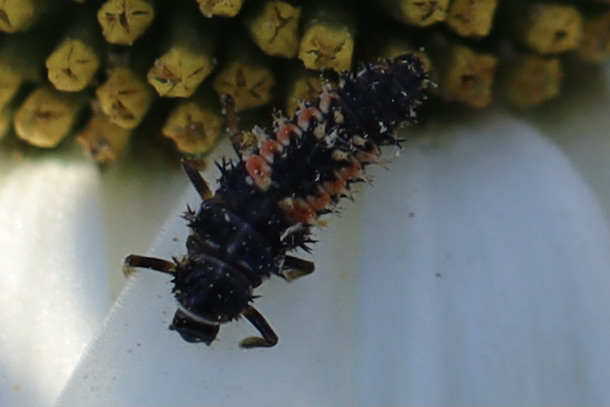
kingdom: Animalia
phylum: Arthropoda
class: Insecta
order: Coleoptera
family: Coccinellidae
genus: Harmonia
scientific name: Harmonia axyridis
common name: Harlequin ladybird
